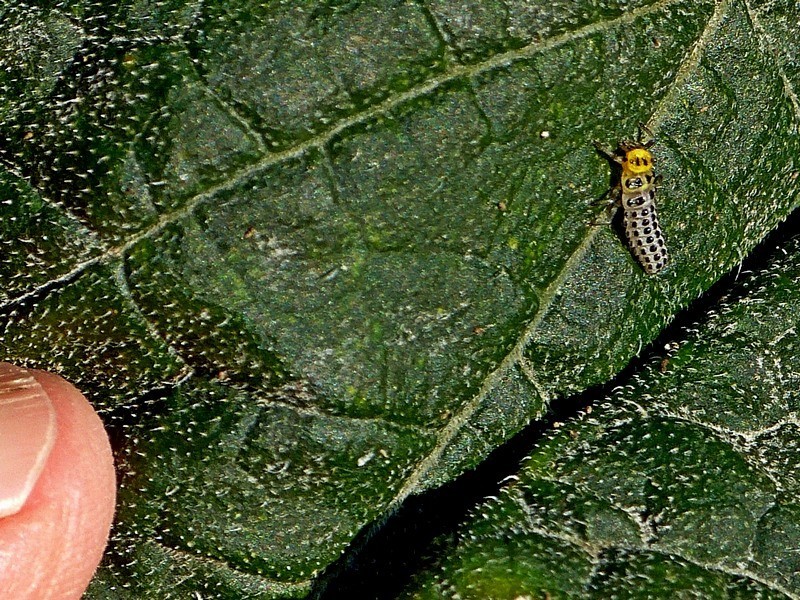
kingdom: Animalia
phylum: Arthropoda
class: Insecta
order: Coleoptera
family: Coccinellidae
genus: Illeis
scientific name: Illeis galbula
